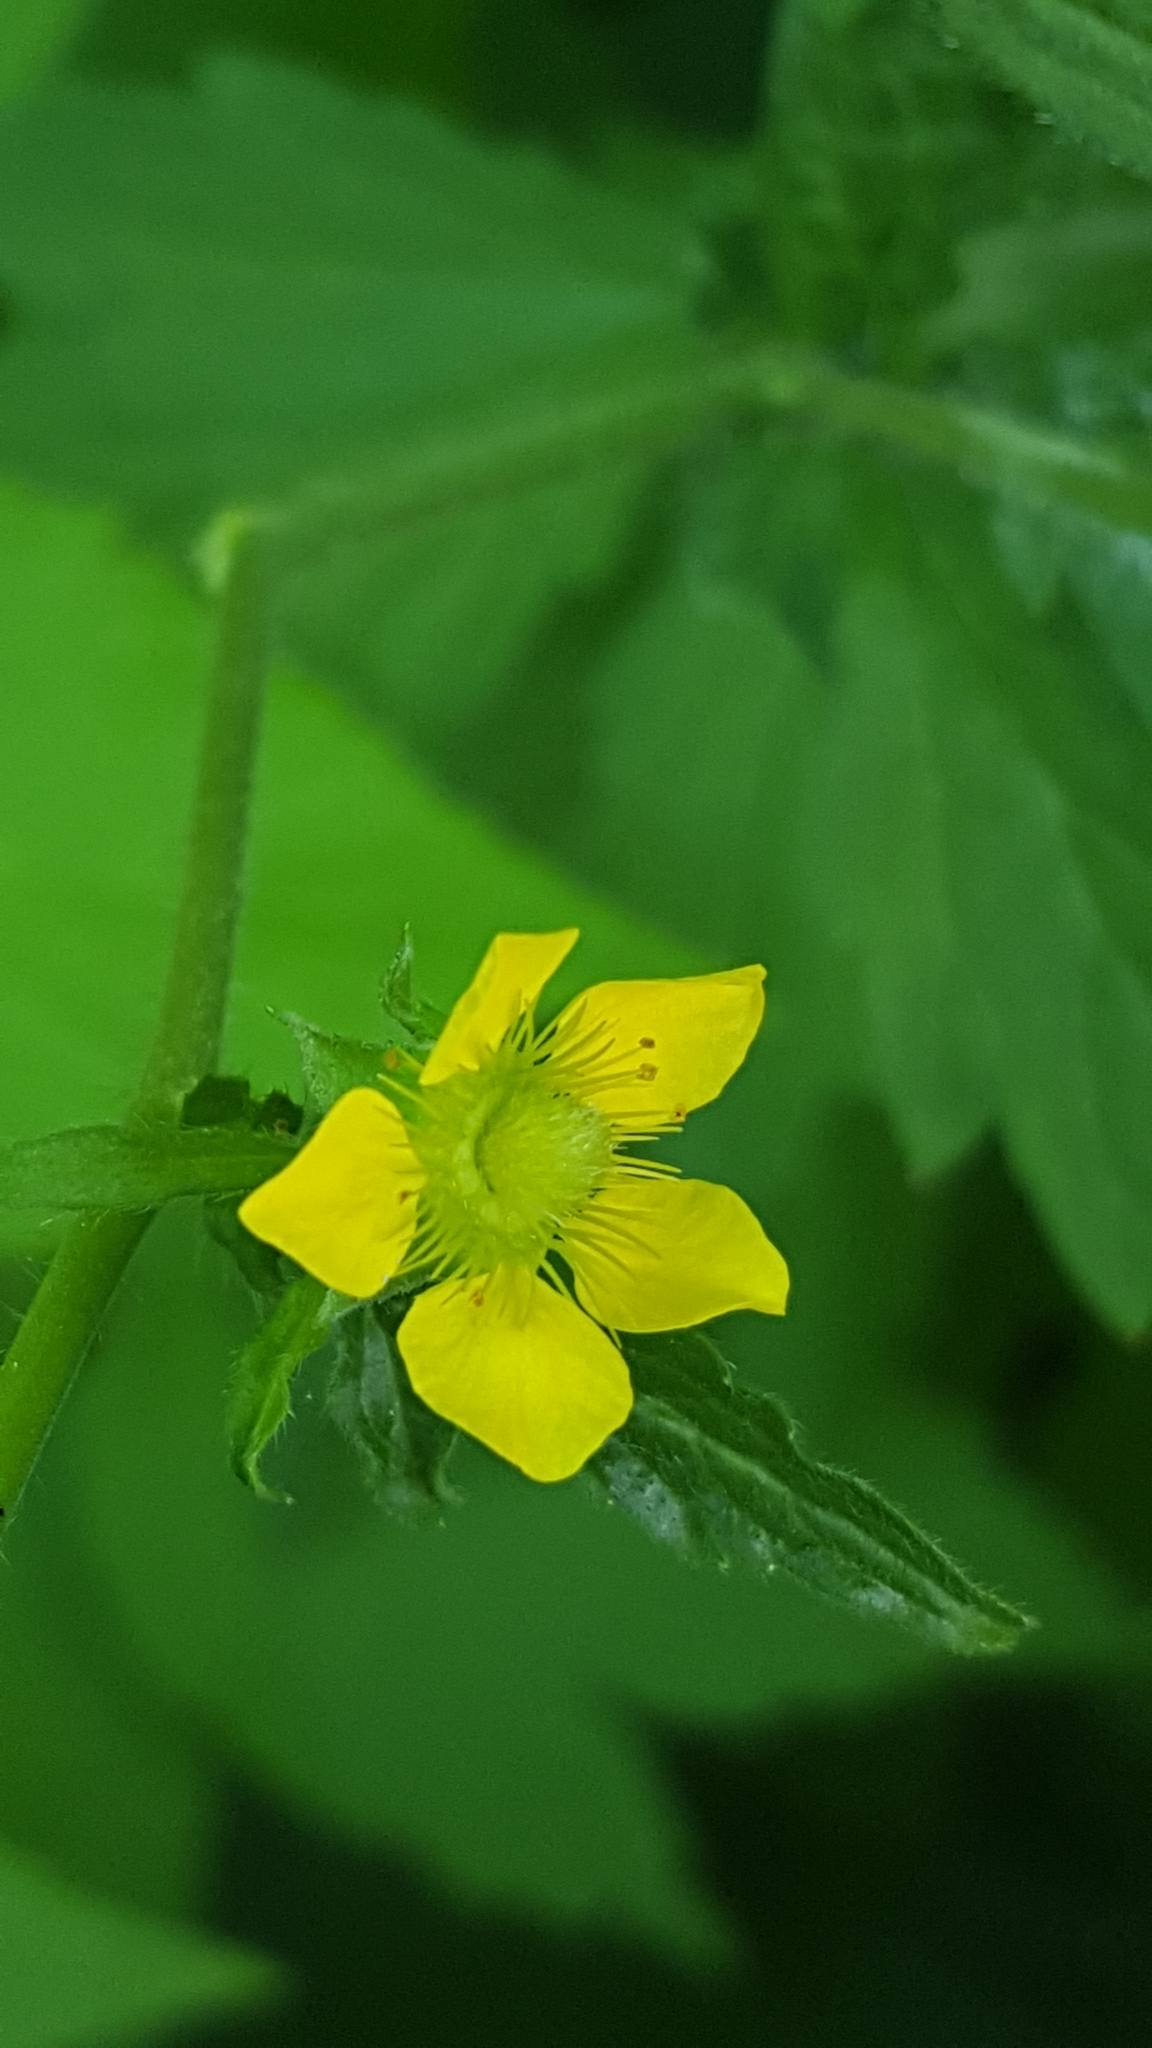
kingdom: Plantae
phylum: Tracheophyta
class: Magnoliopsida
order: Rosales
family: Rosaceae
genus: Geum
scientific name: Geum aleppicum
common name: Yellow avens
